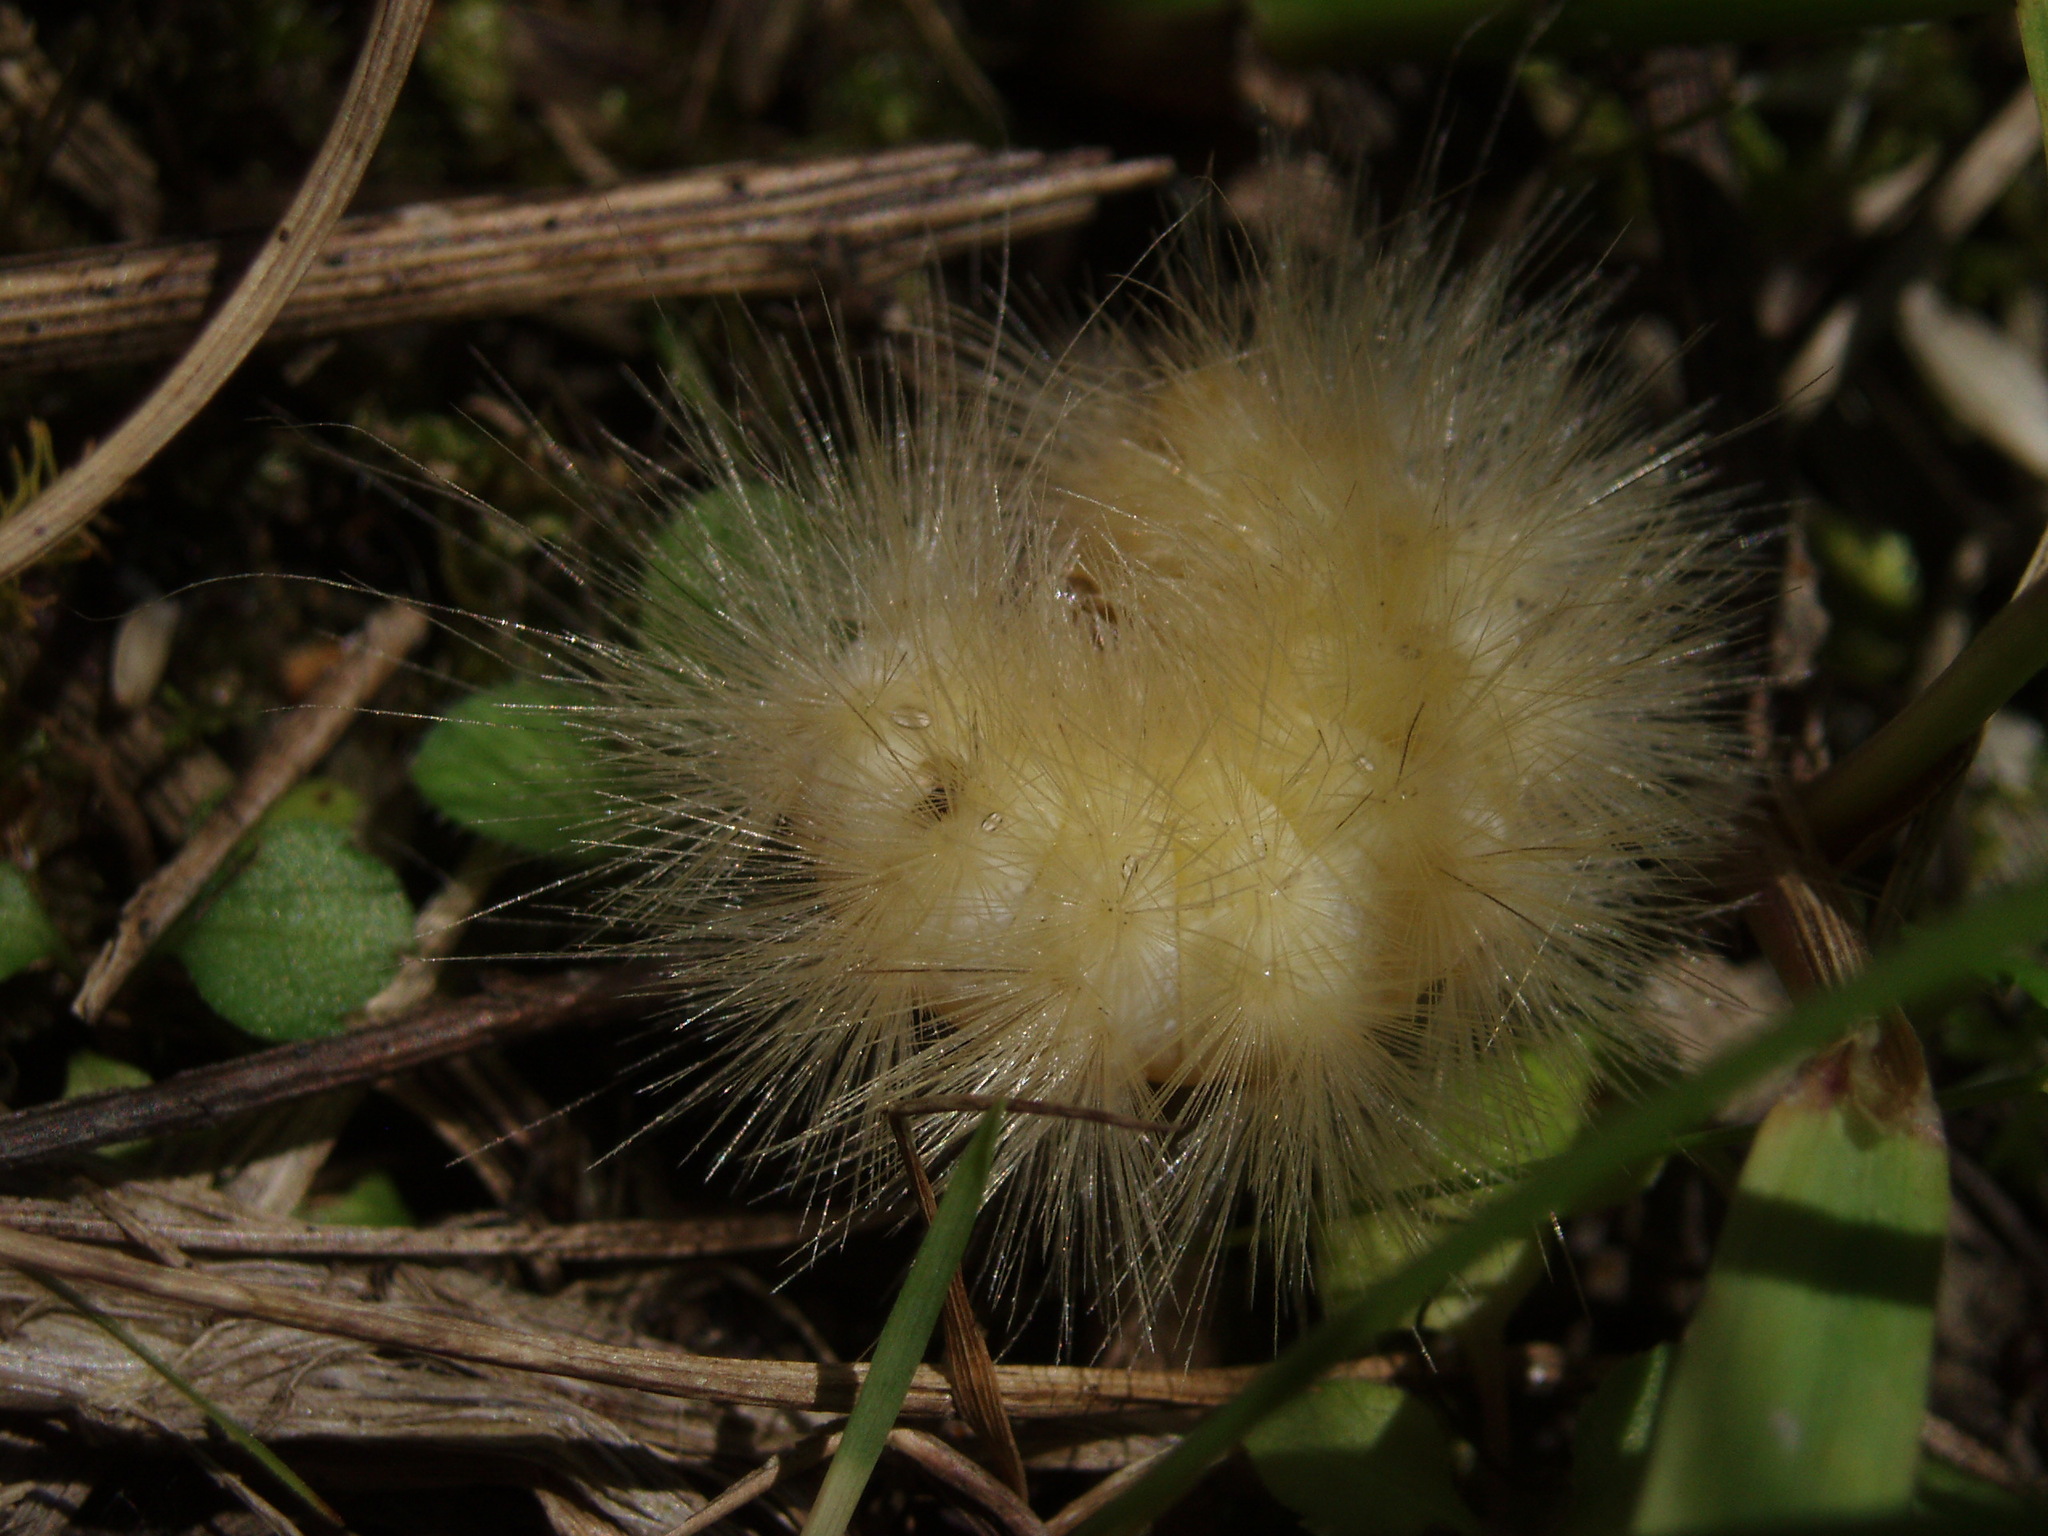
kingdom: Animalia
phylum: Arthropoda
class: Insecta
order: Lepidoptera
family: Erebidae
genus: Spilosoma
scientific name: Spilosoma virginica
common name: Virginia tiger moth
